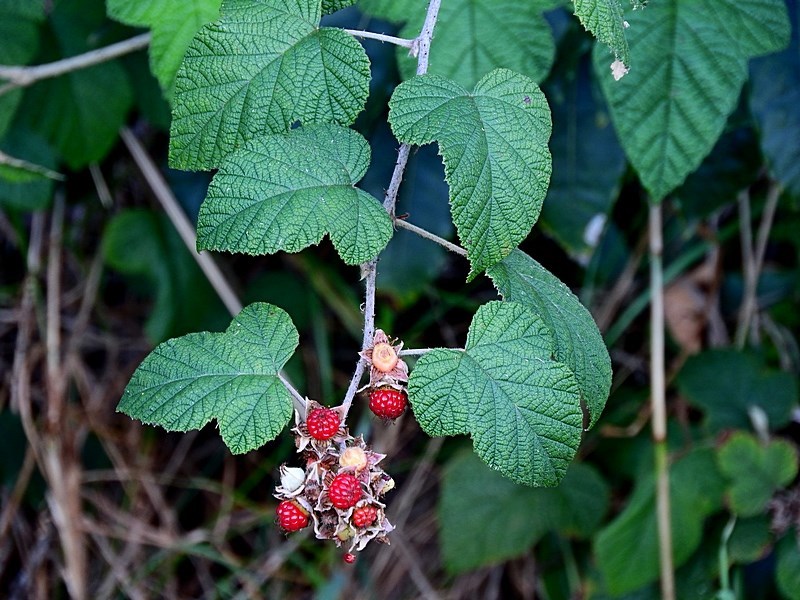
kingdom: Plantae
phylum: Tracheophyta
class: Magnoliopsida
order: Rosales
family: Rosaceae
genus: Rubus
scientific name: Rubus moluccanus
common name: Wild raspberry
